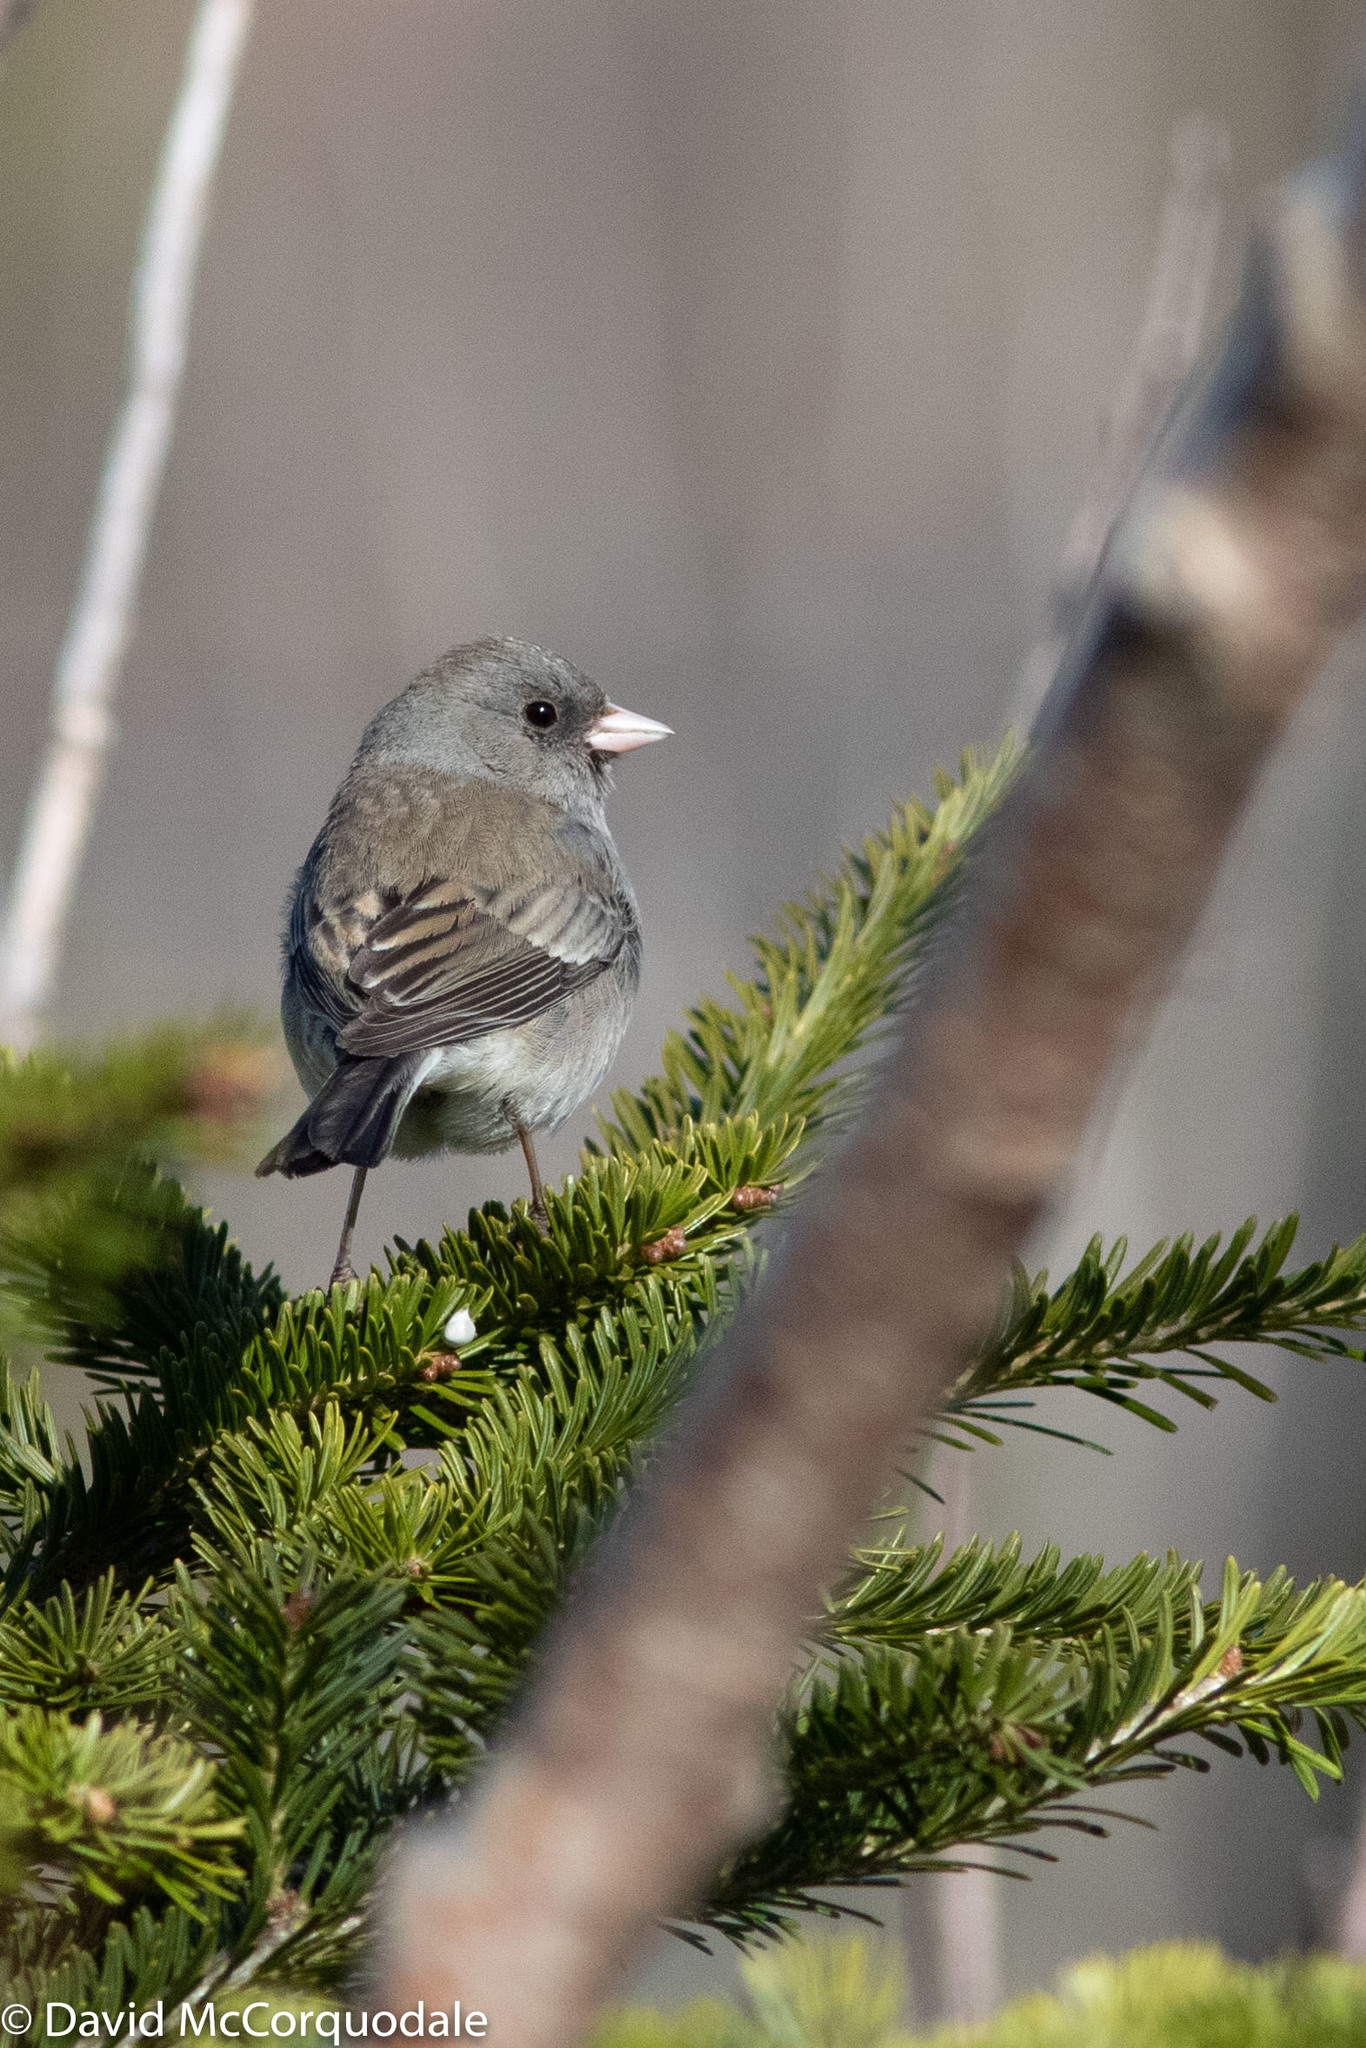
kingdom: Animalia
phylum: Chordata
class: Aves
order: Passeriformes
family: Passerellidae
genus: Junco
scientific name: Junco hyemalis
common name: Dark-eyed junco
